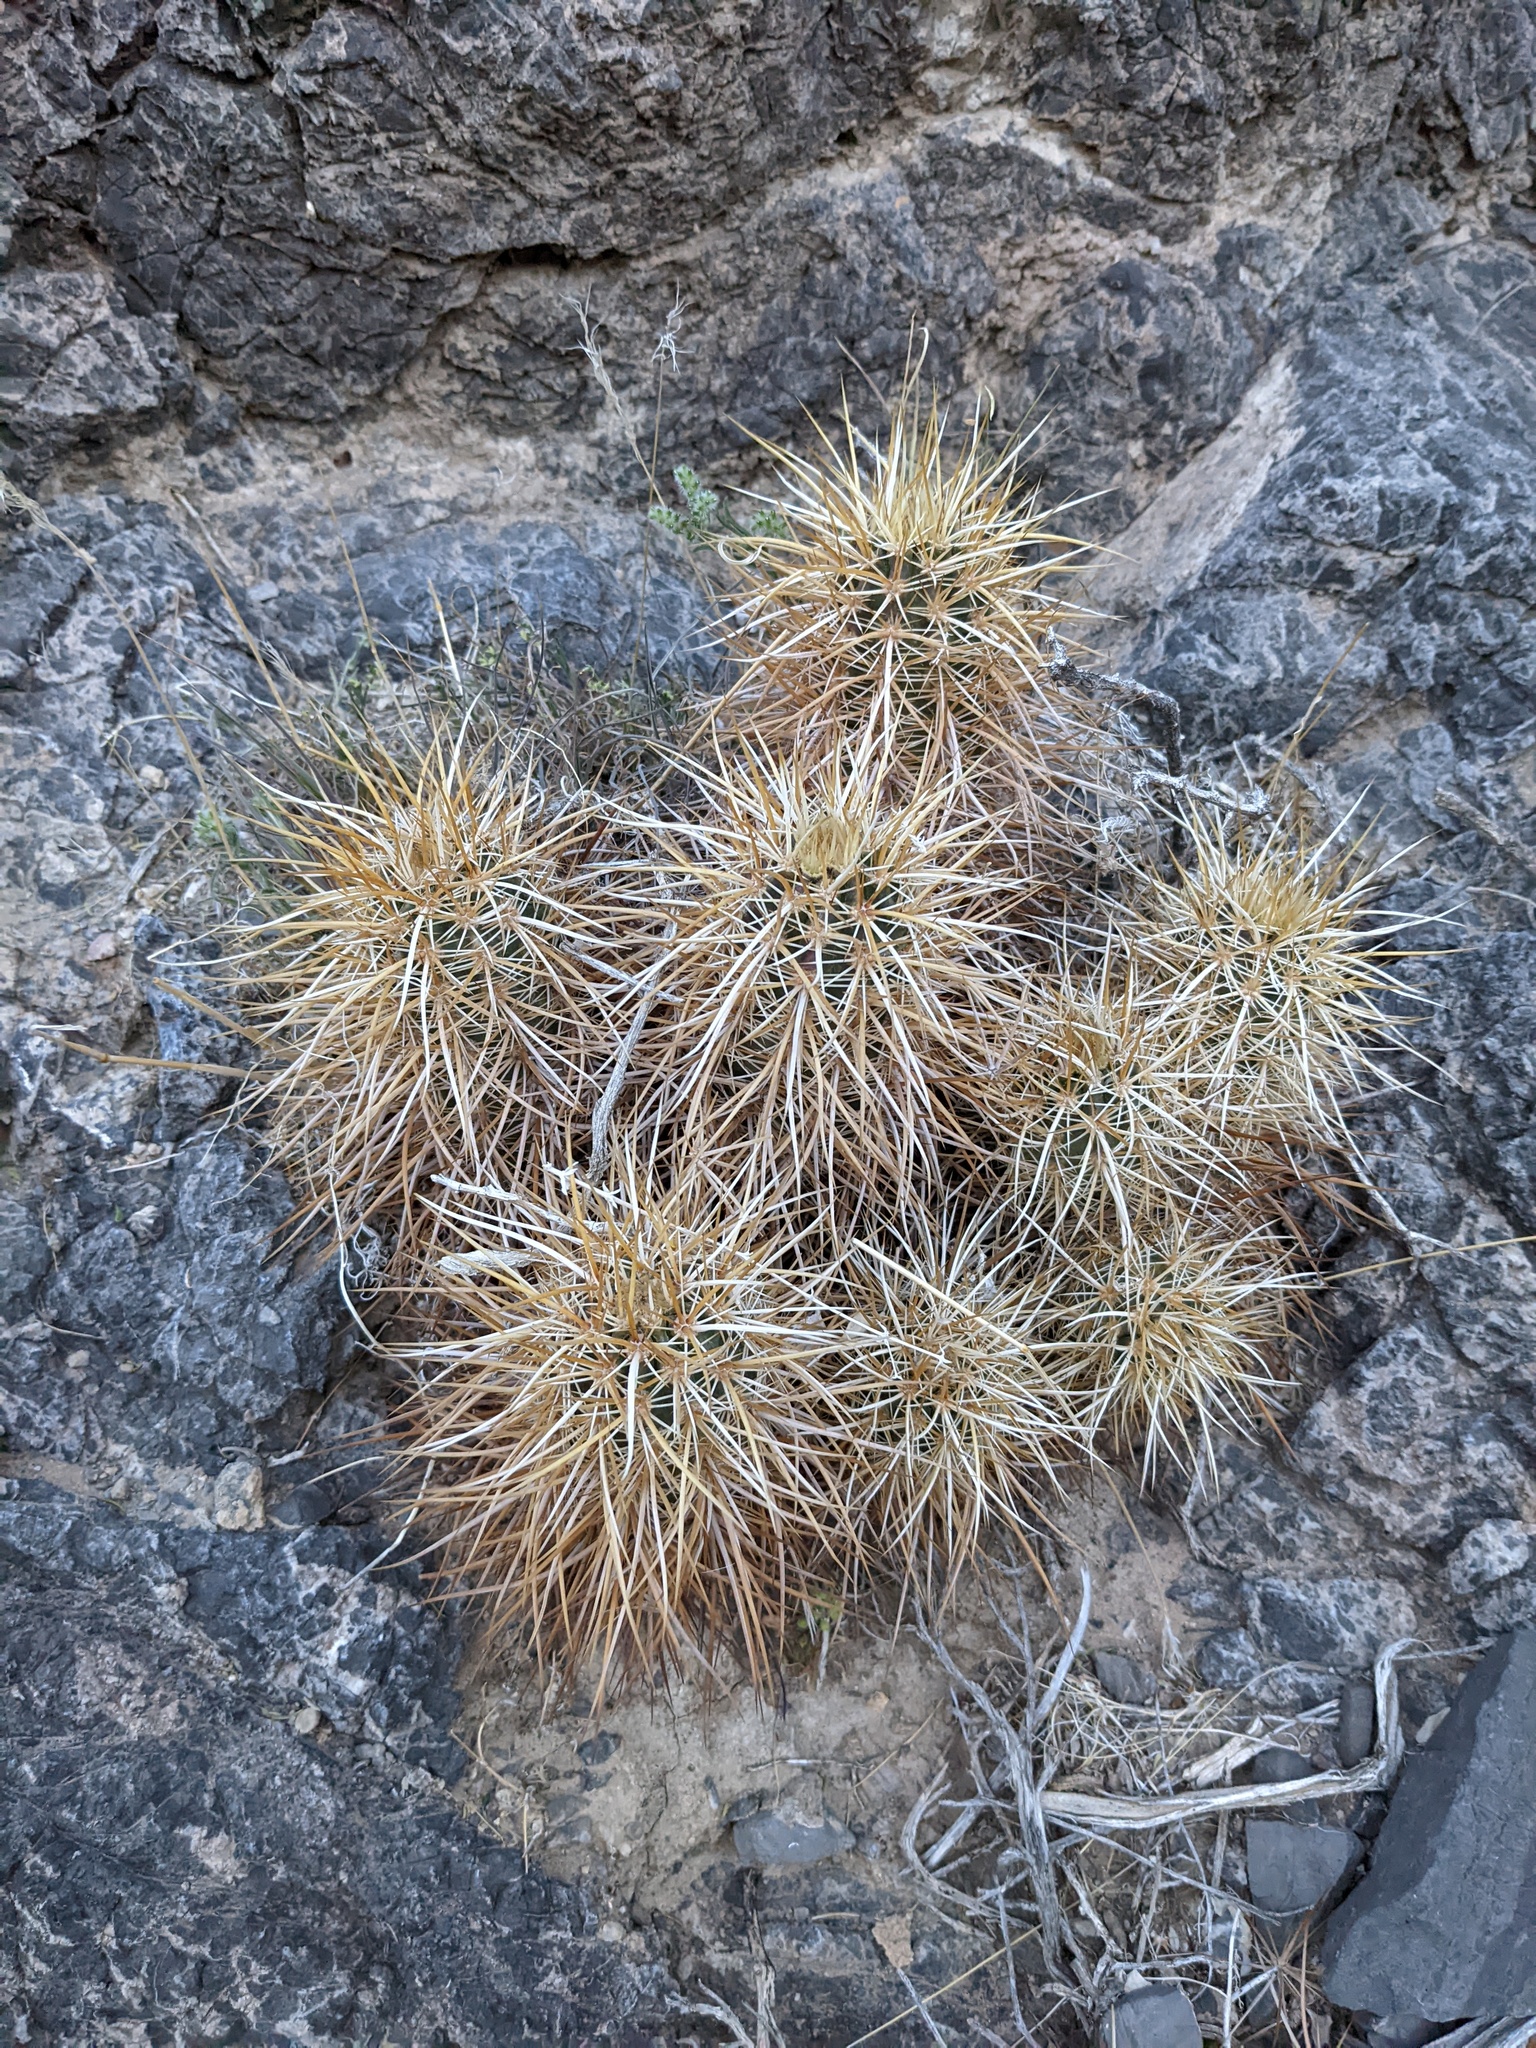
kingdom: Plantae
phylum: Tracheophyta
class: Magnoliopsida
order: Caryophyllales
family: Cactaceae
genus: Echinocereus
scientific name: Echinocereus engelmannii
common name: Engelmann's hedgehog cactus
